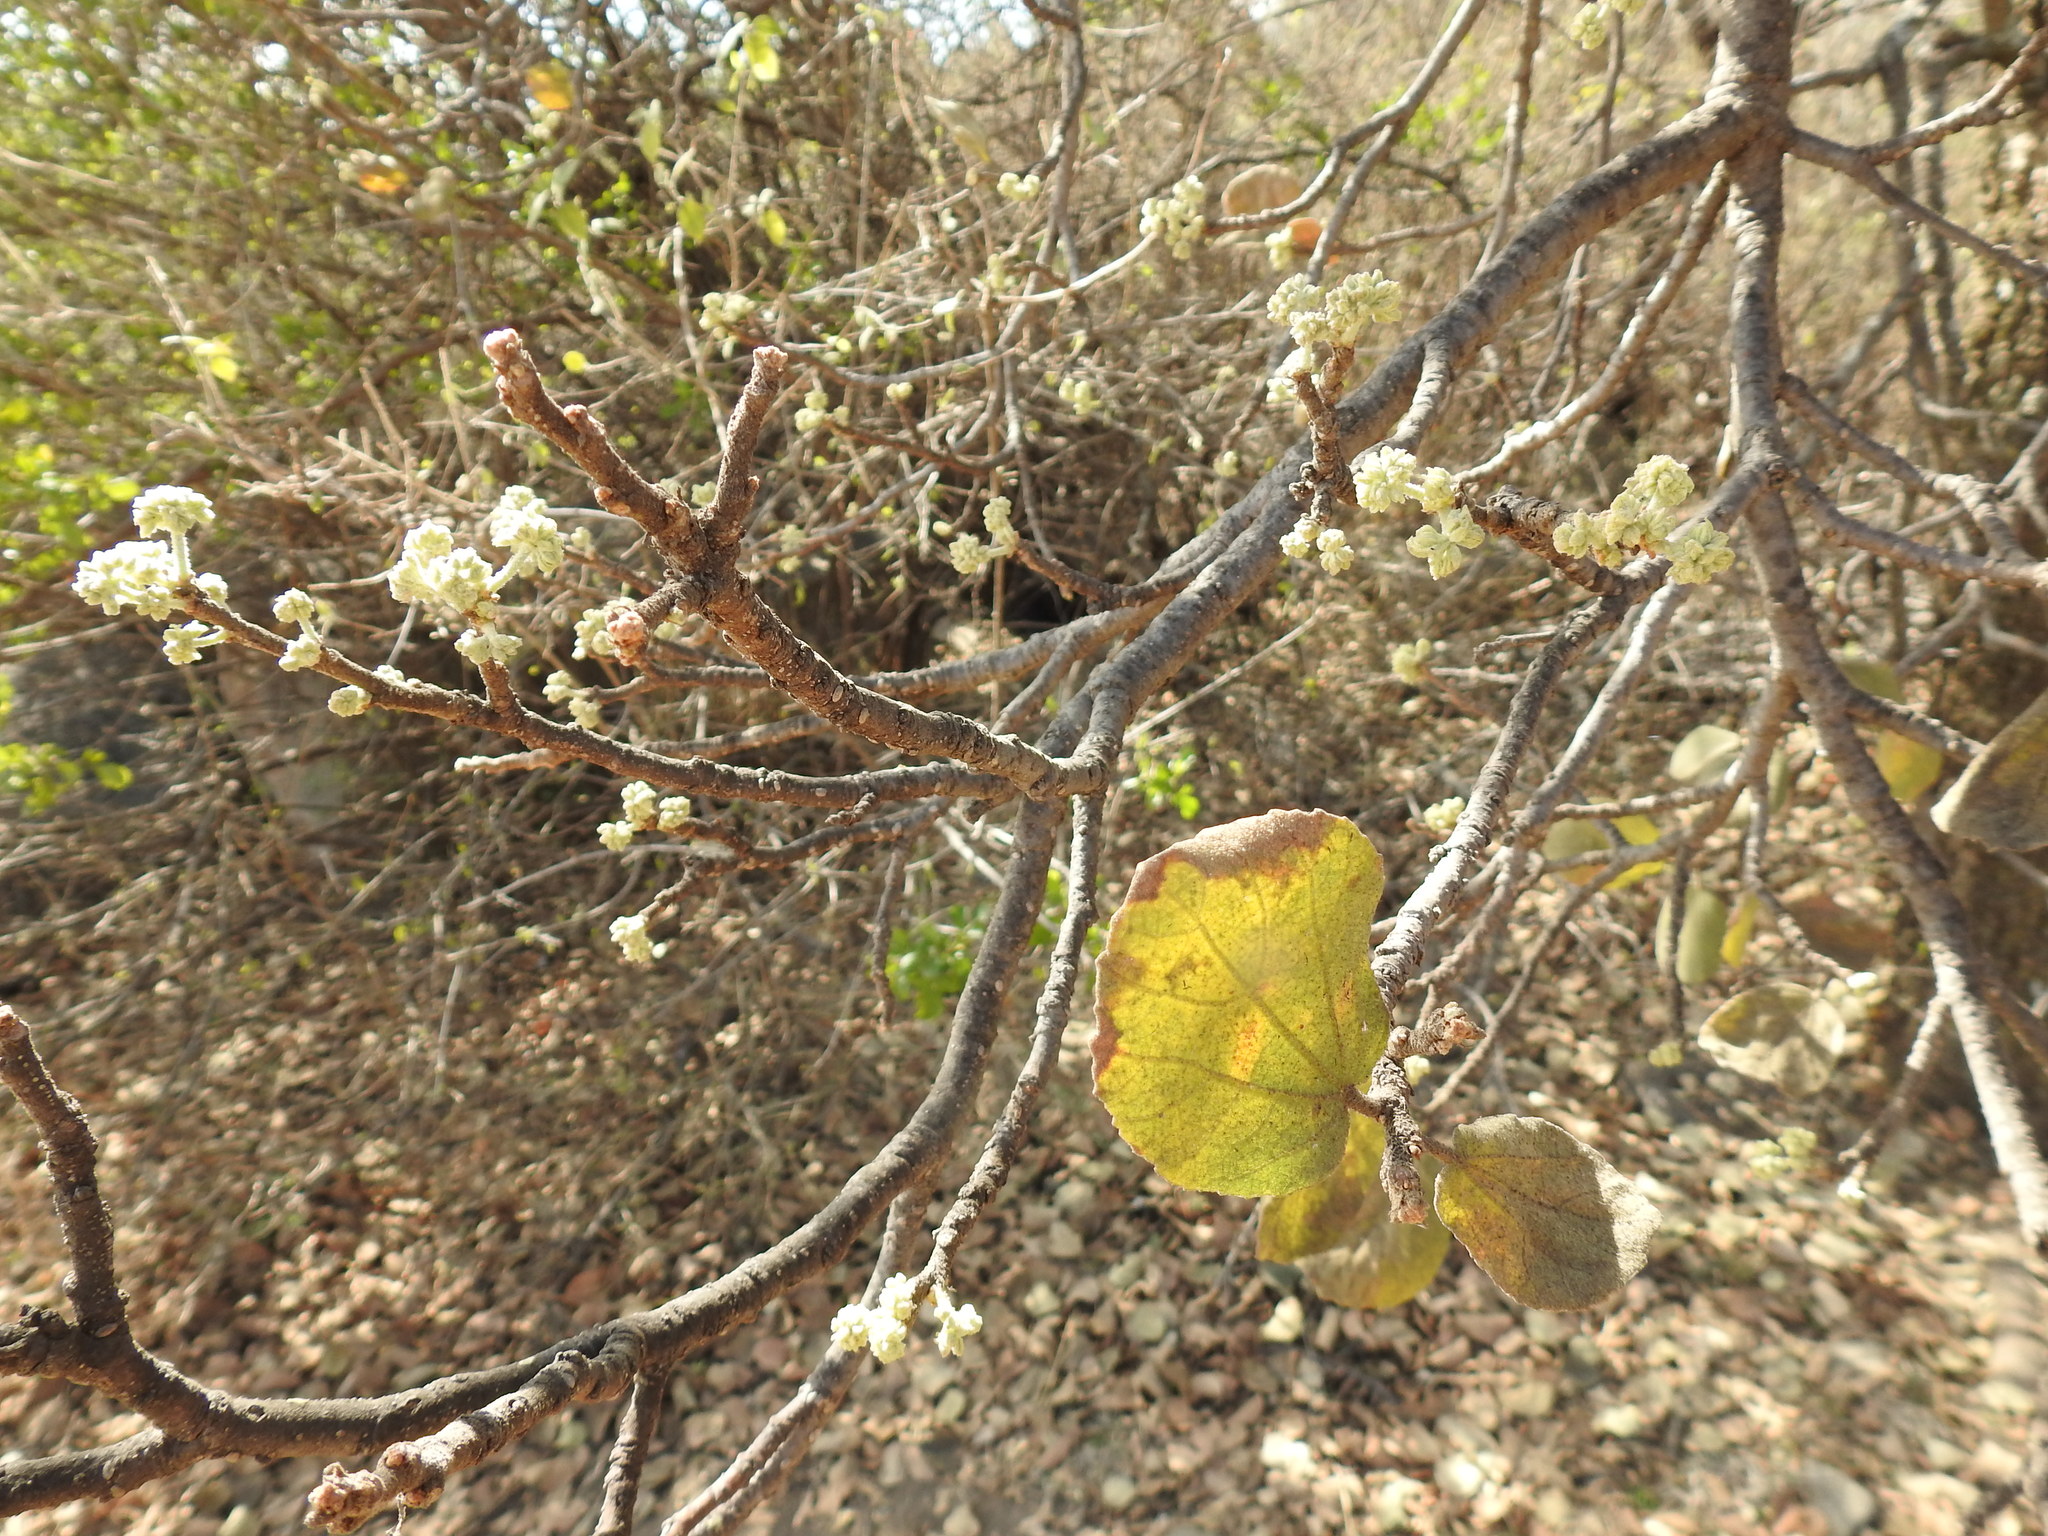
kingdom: Plantae
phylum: Tracheophyta
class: Magnoliopsida
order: Malvales
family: Malvaceae
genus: Dombeya
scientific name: Dombeya rotundifolia
